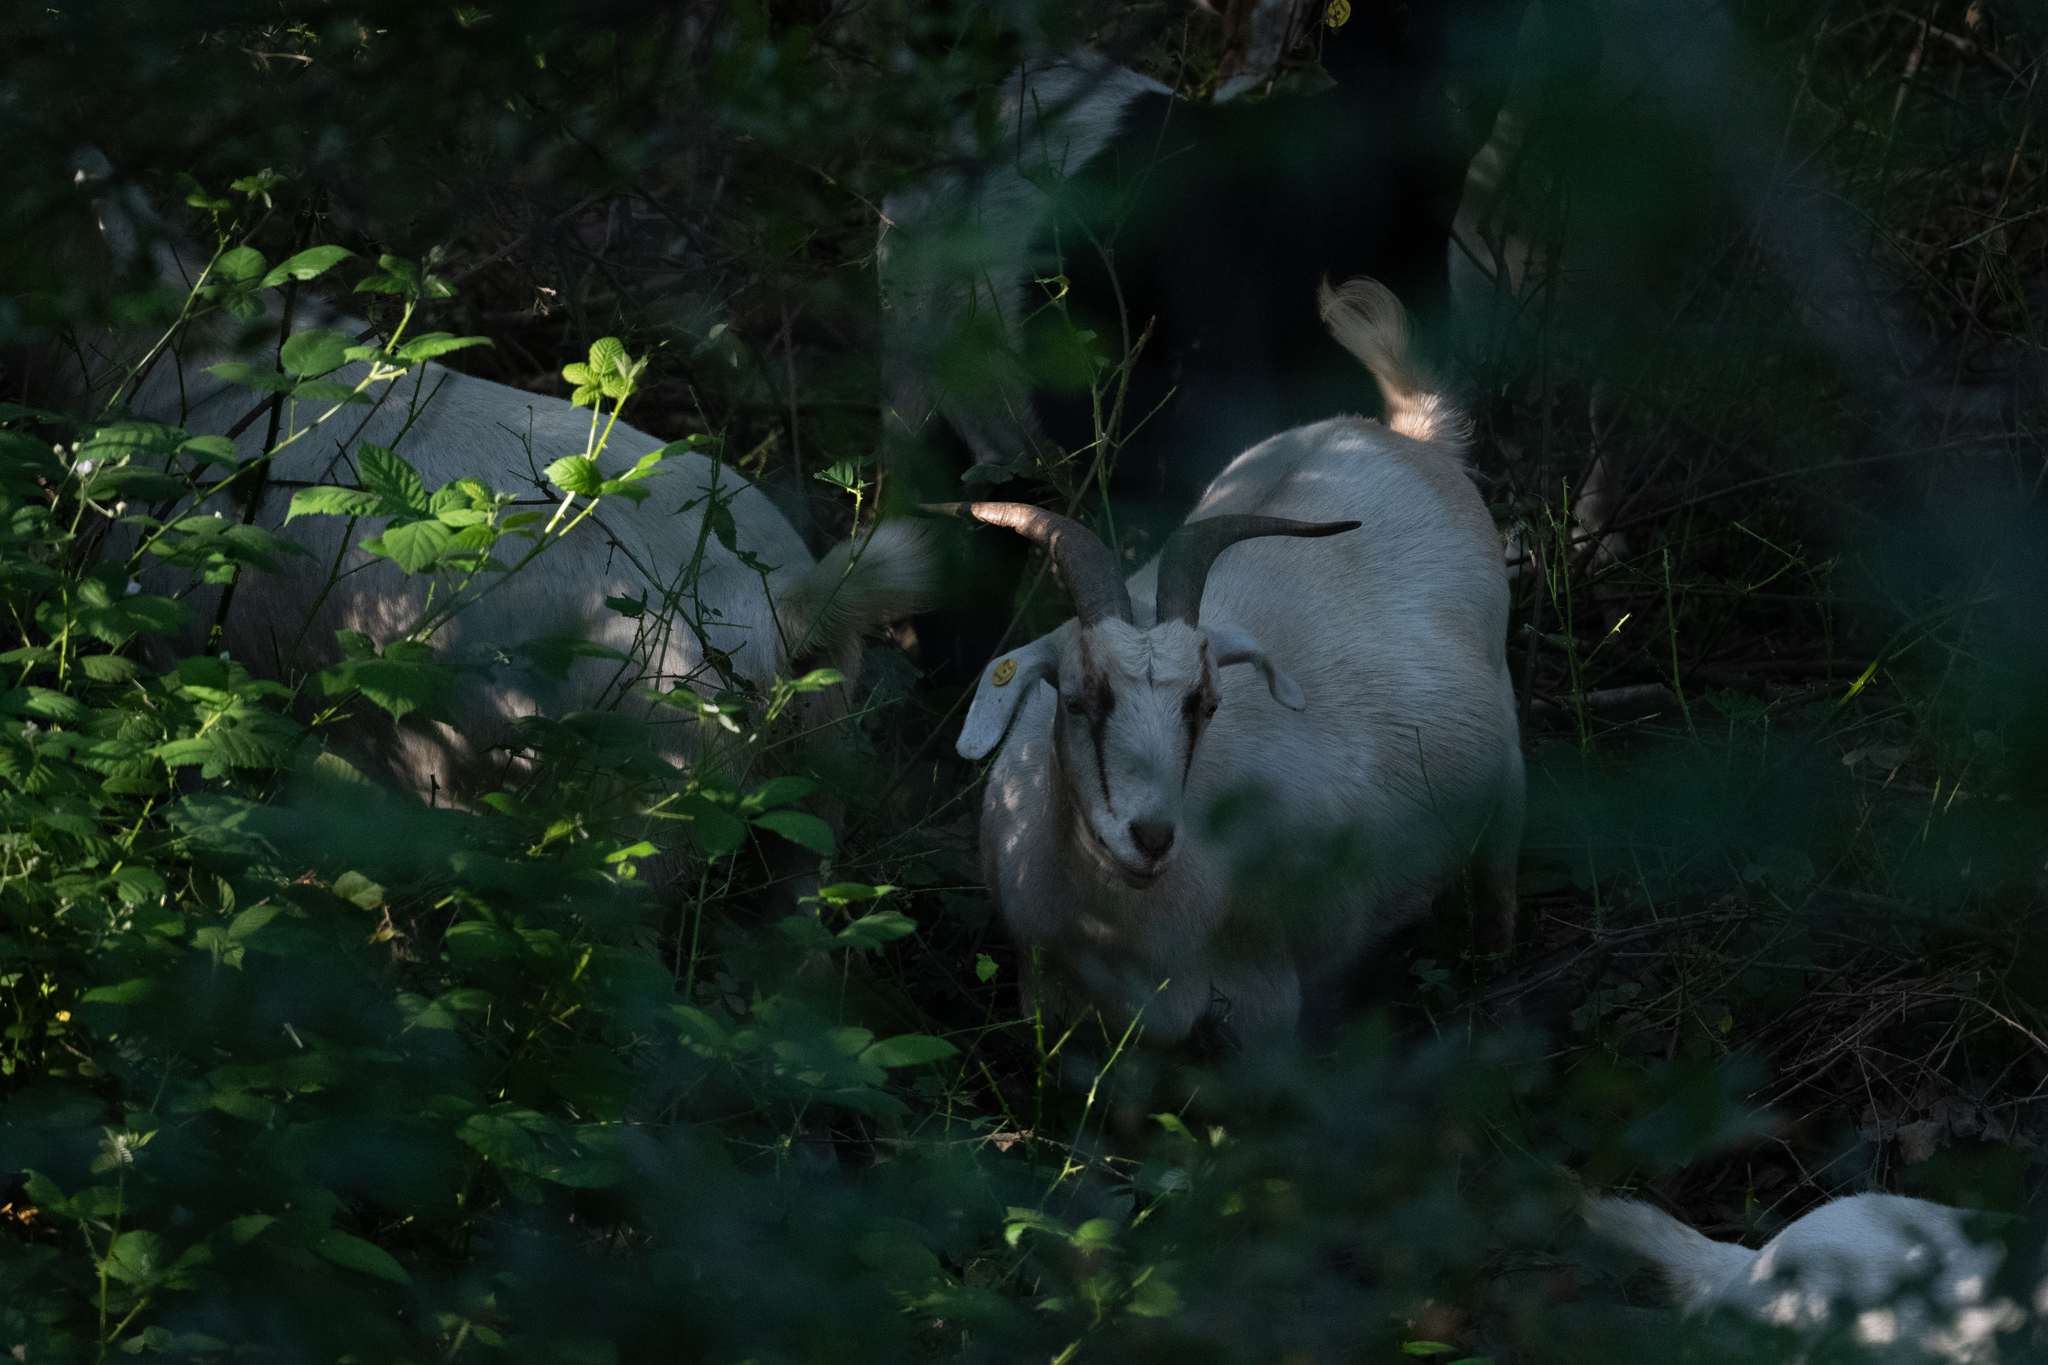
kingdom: Animalia
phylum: Chordata
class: Mammalia
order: Artiodactyla
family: Bovidae
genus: Capra
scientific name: Capra hircus
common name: Domestic goat
